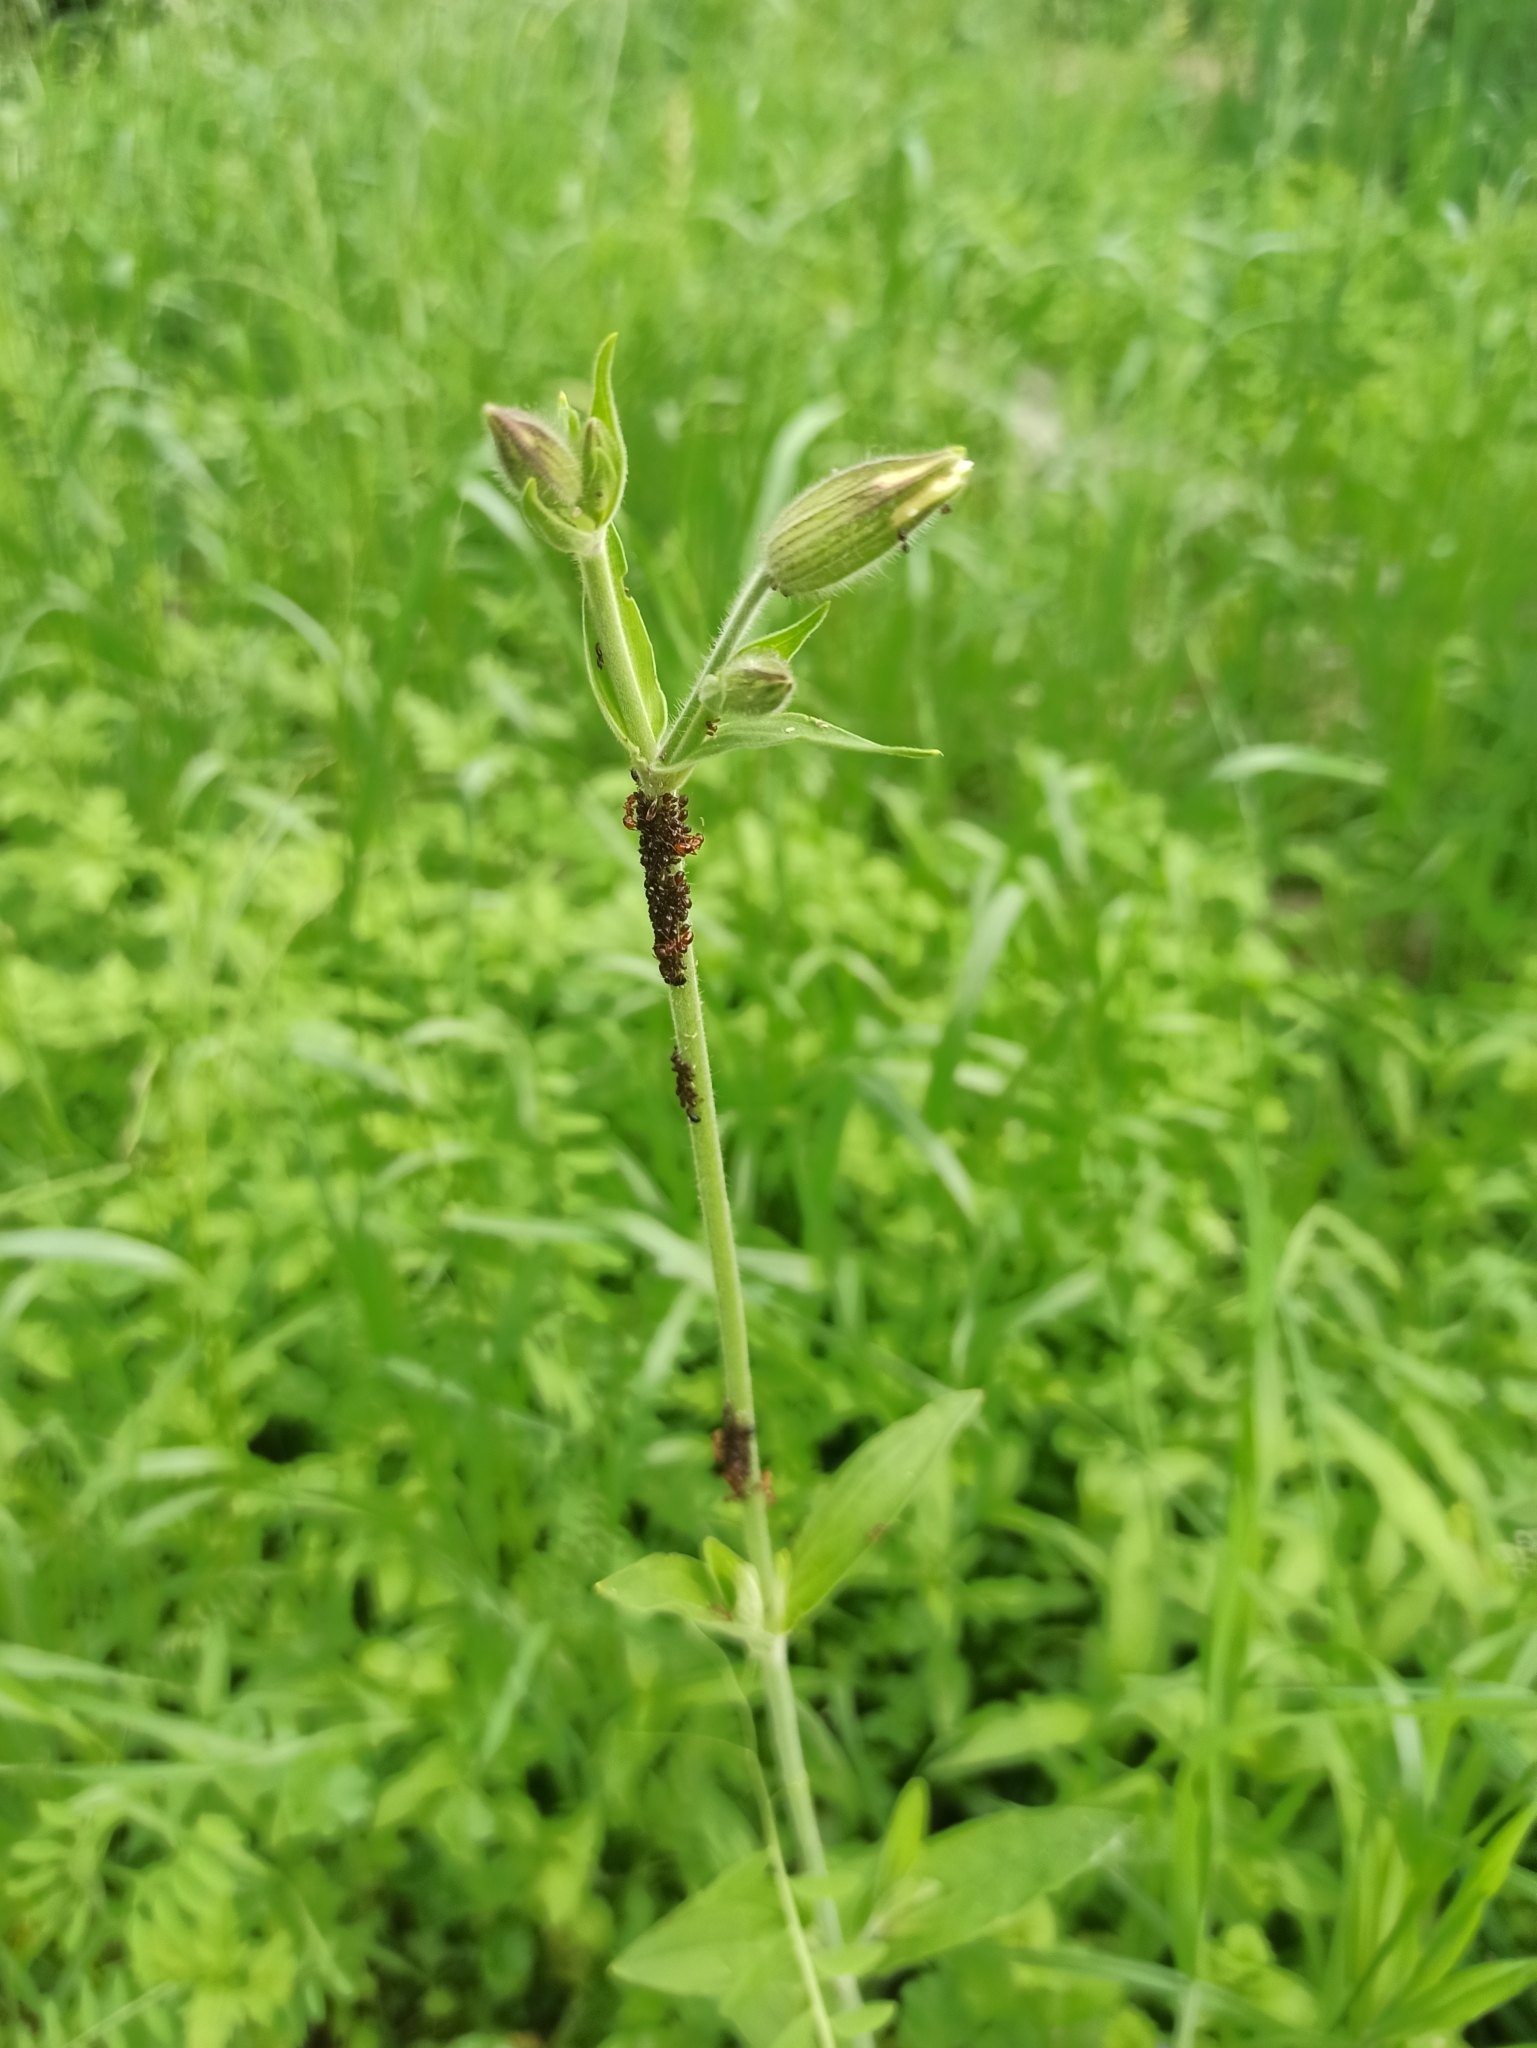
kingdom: Plantae
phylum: Tracheophyta
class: Magnoliopsida
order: Caryophyllales
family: Caryophyllaceae
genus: Silene
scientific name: Silene latifolia
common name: White campion
